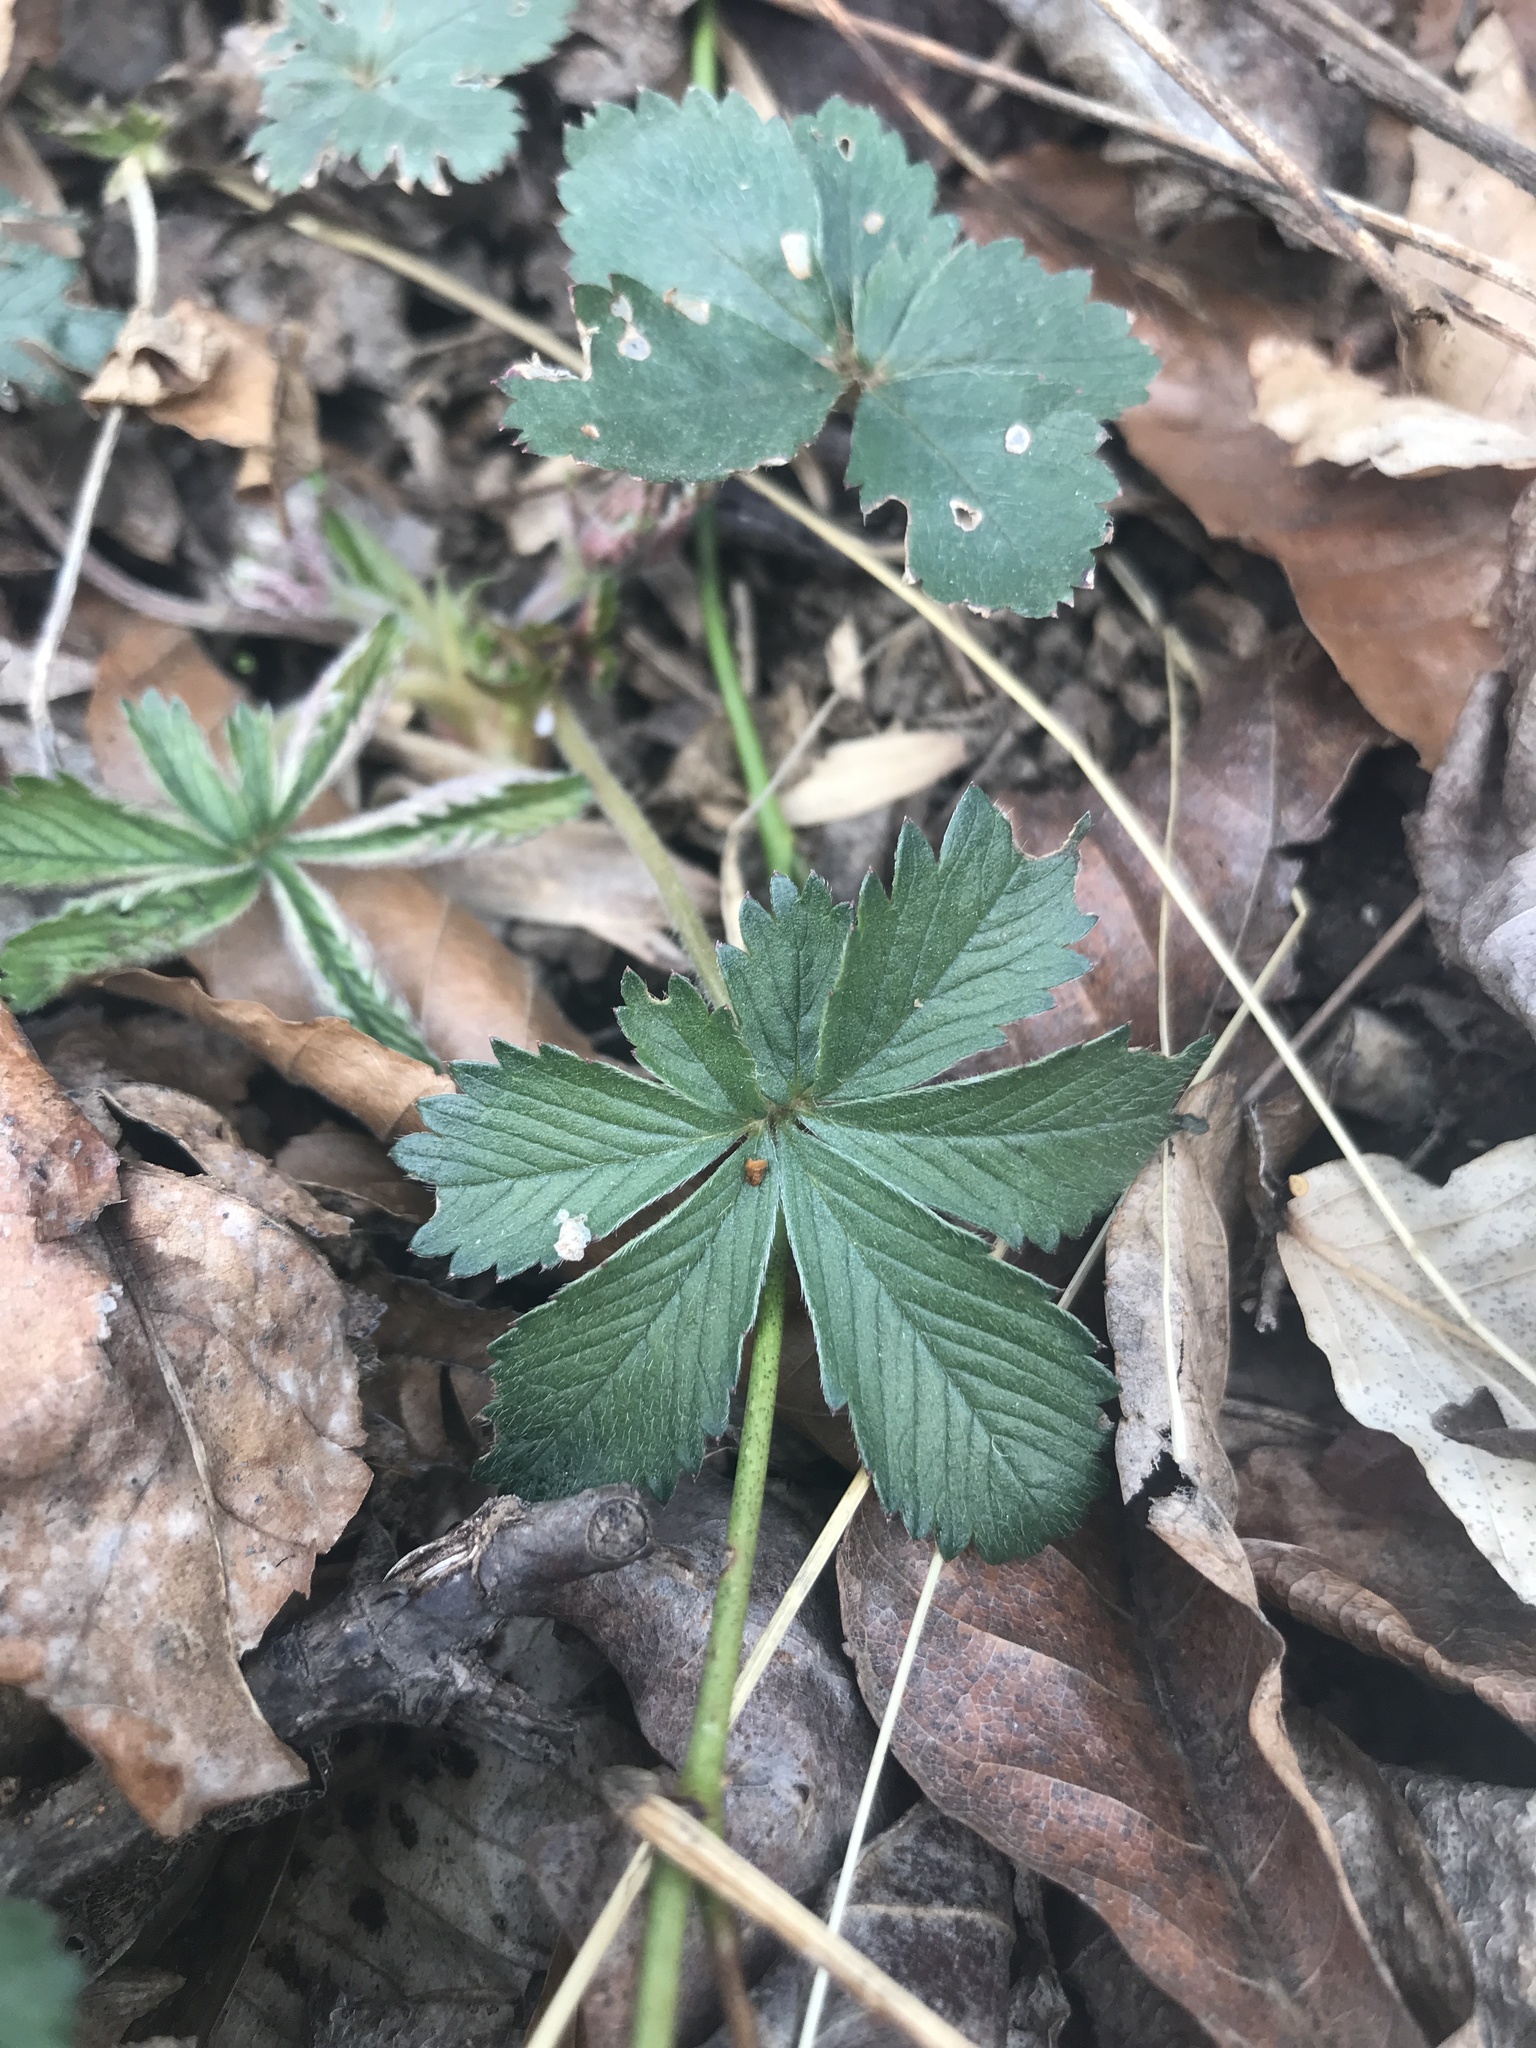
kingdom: Plantae
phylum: Tracheophyta
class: Magnoliopsida
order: Rosales
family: Rosaceae
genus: Potentilla
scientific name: Potentilla simplex
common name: Old field cinquefoil
